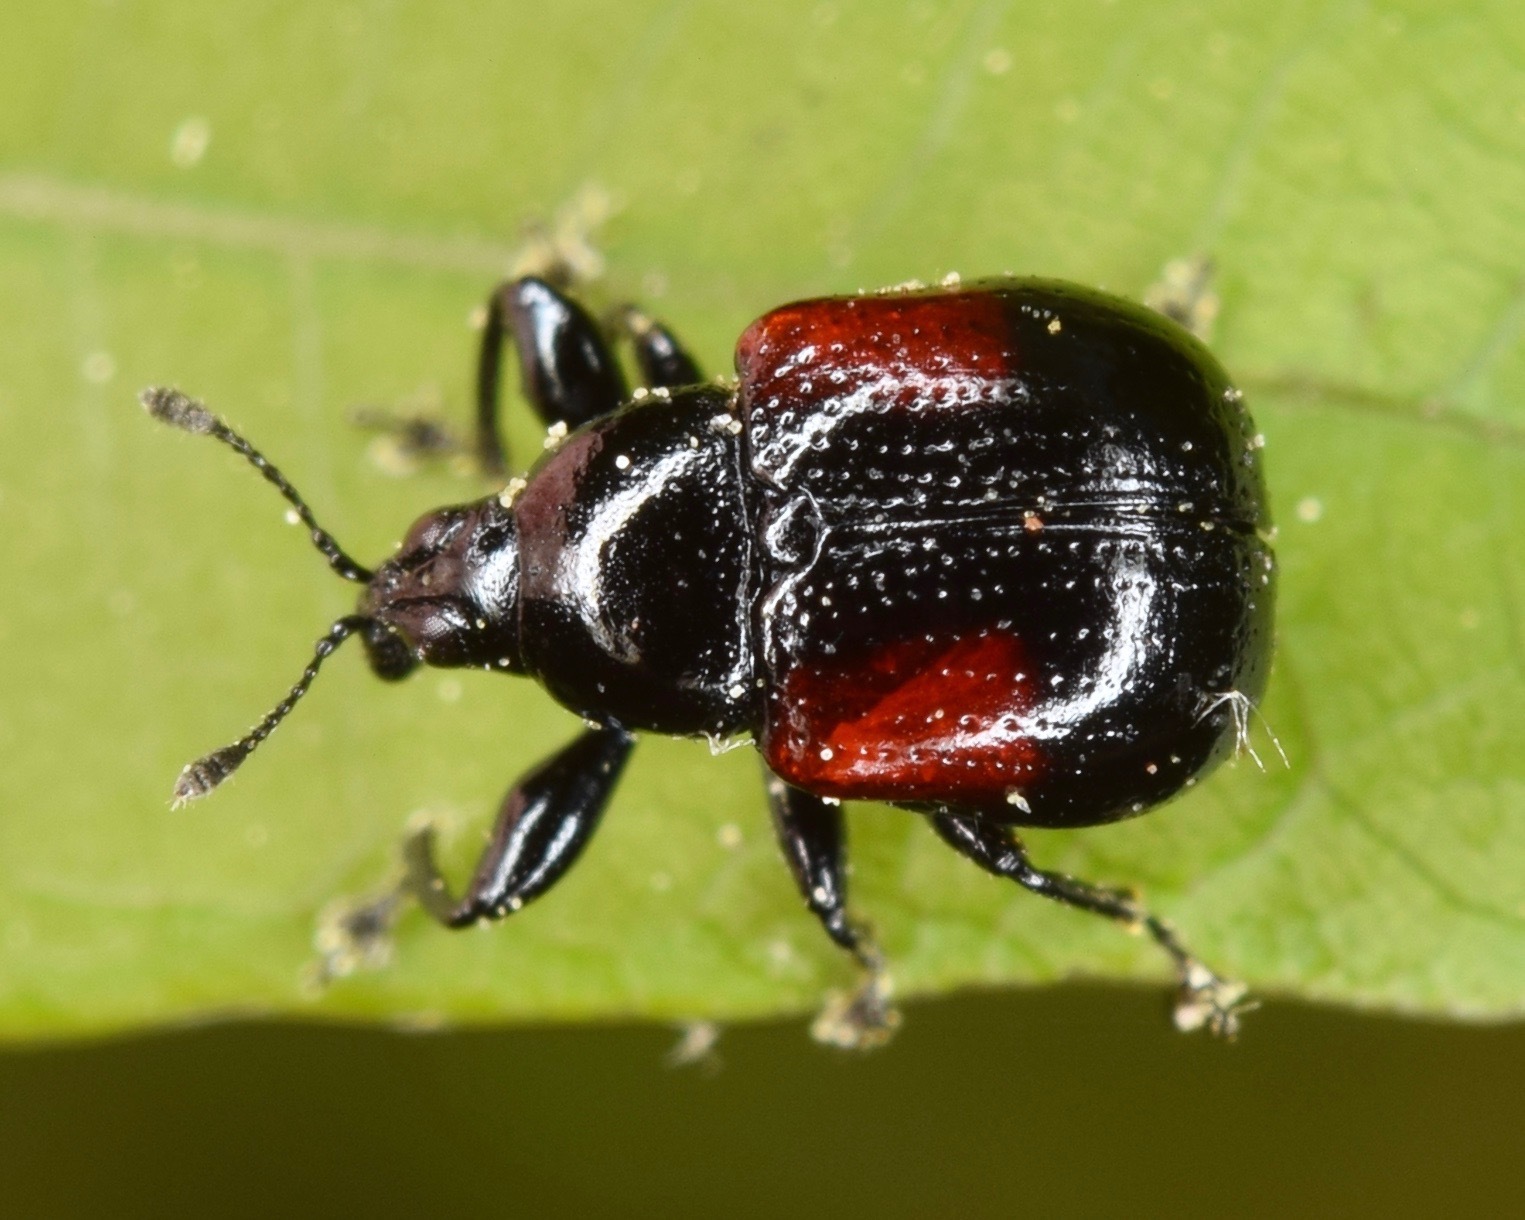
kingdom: Animalia
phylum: Arthropoda
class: Insecta
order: Coleoptera
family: Attelabidae
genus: Attelabus
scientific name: Attelabus bipustulatus
